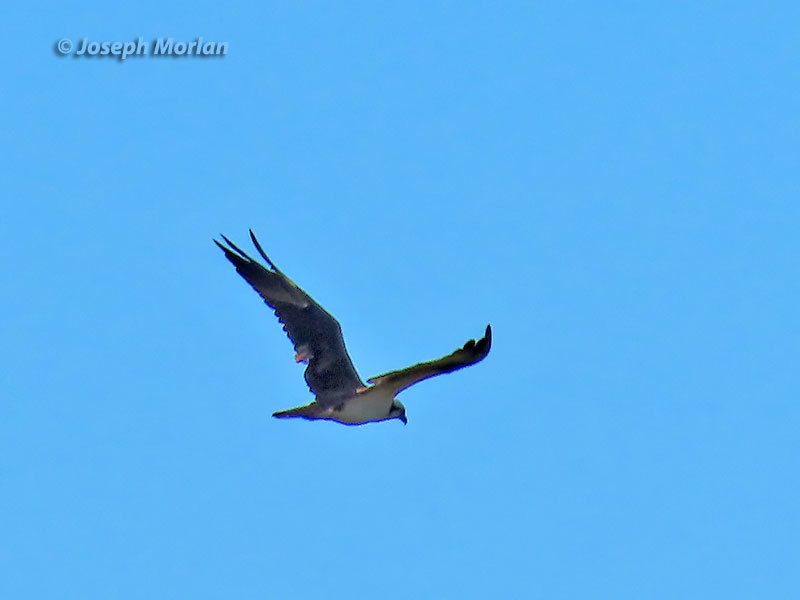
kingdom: Animalia
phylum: Chordata
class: Aves
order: Accipitriformes
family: Pandionidae
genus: Pandion
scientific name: Pandion haliaetus
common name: Osprey
